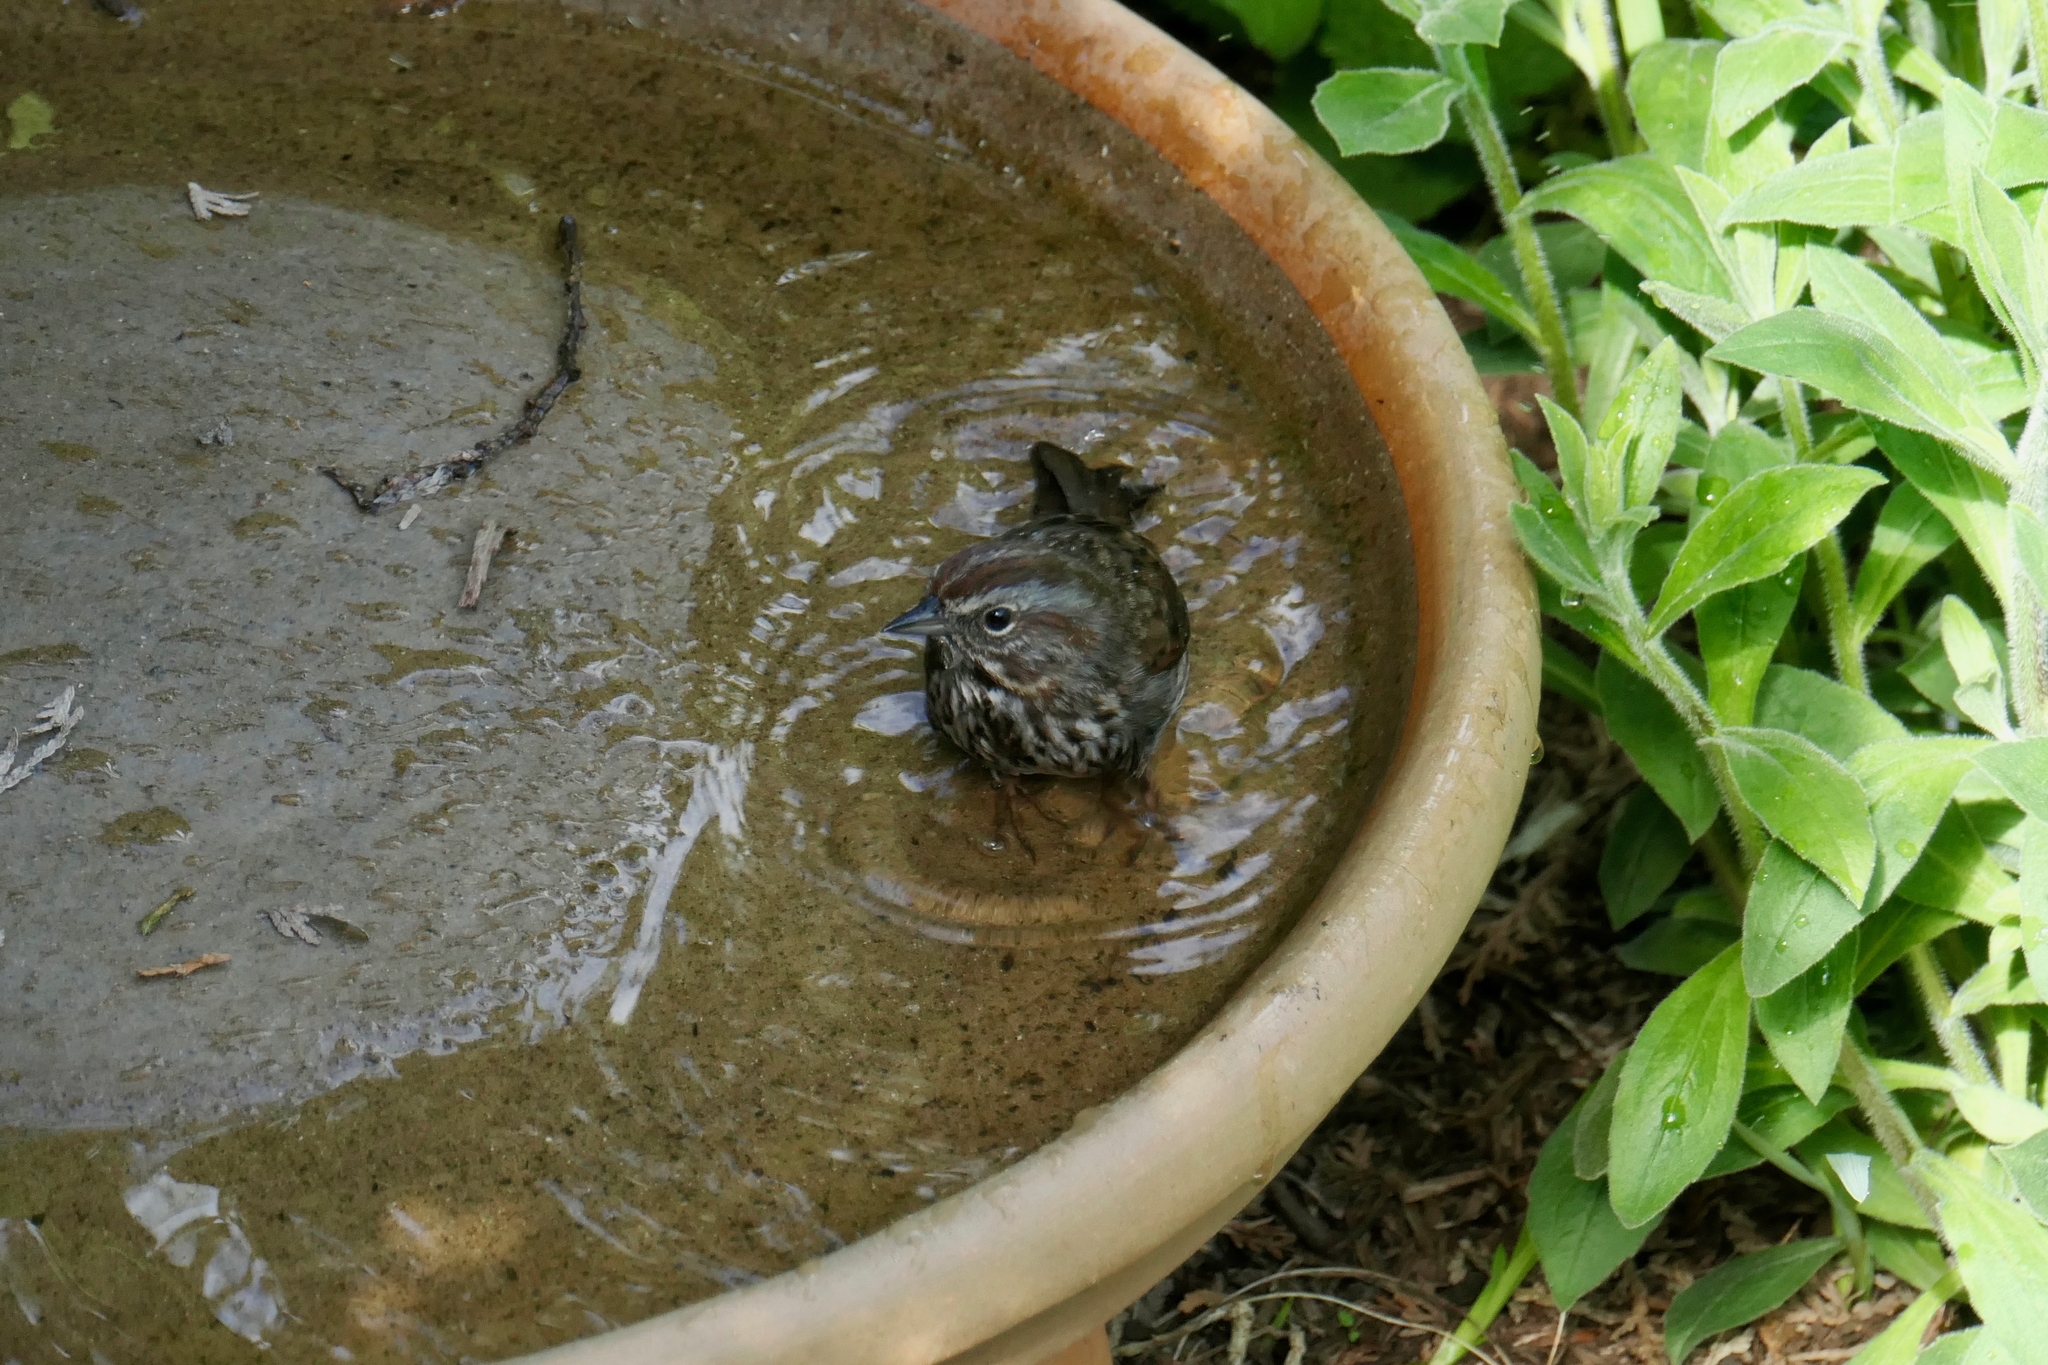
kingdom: Animalia
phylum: Chordata
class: Aves
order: Passeriformes
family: Passerellidae
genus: Melospiza
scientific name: Melospiza melodia
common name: Song sparrow
